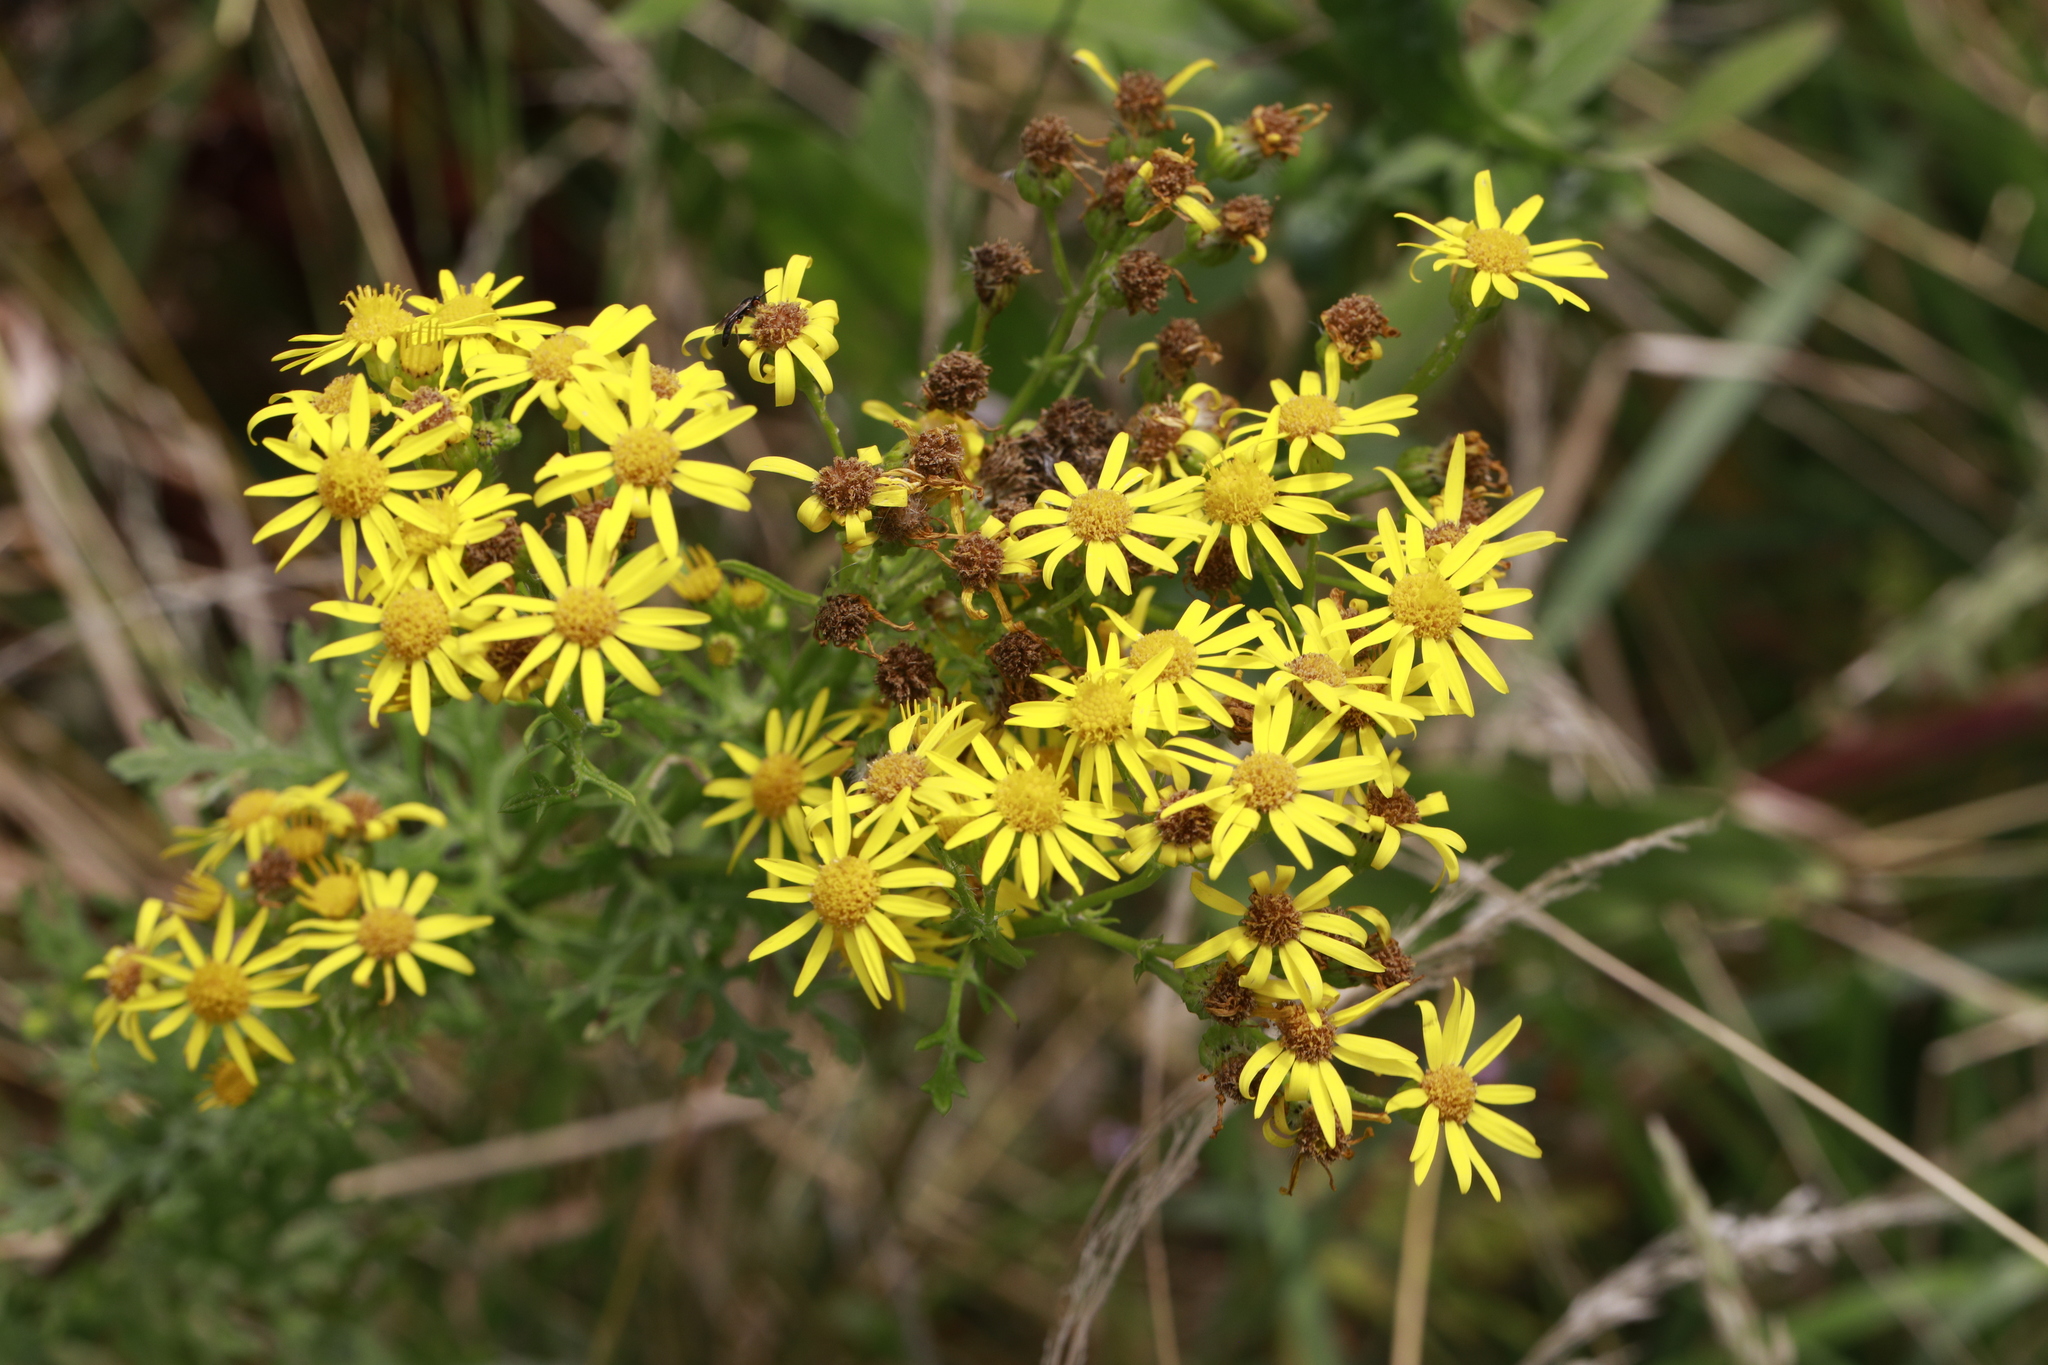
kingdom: Plantae
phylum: Tracheophyta
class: Magnoliopsida
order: Asterales
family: Asteraceae
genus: Jacobaea
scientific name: Jacobaea vulgaris
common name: Stinking willie
